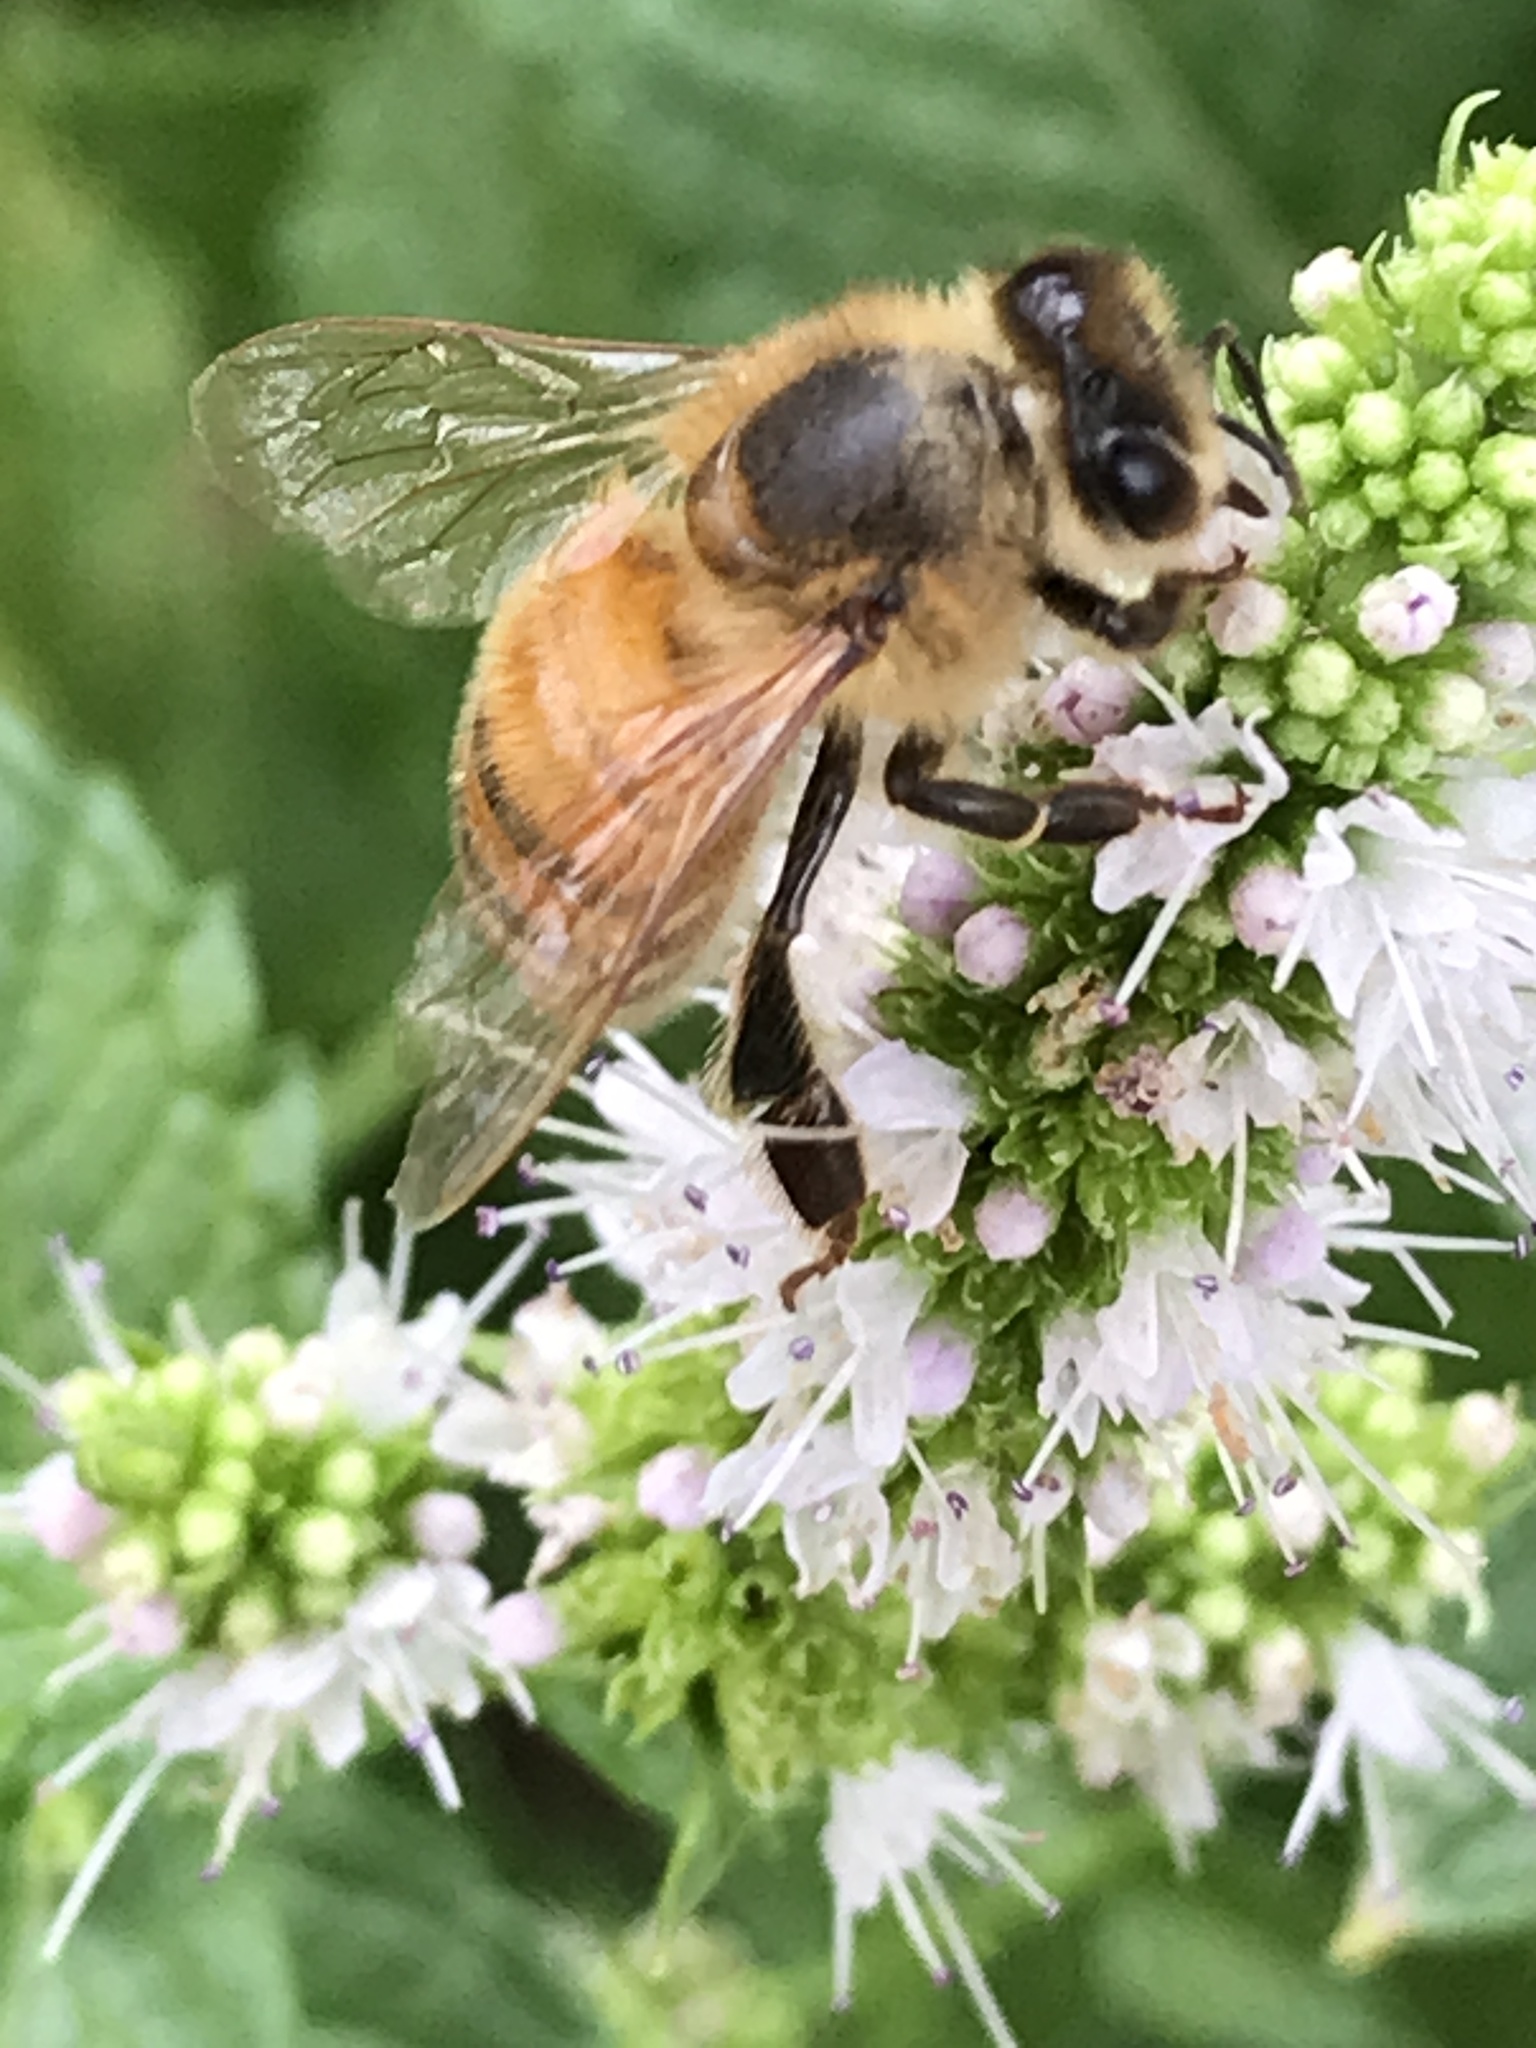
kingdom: Animalia
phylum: Arthropoda
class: Insecta
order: Hymenoptera
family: Apidae
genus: Apis
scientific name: Apis mellifera
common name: Honey bee
